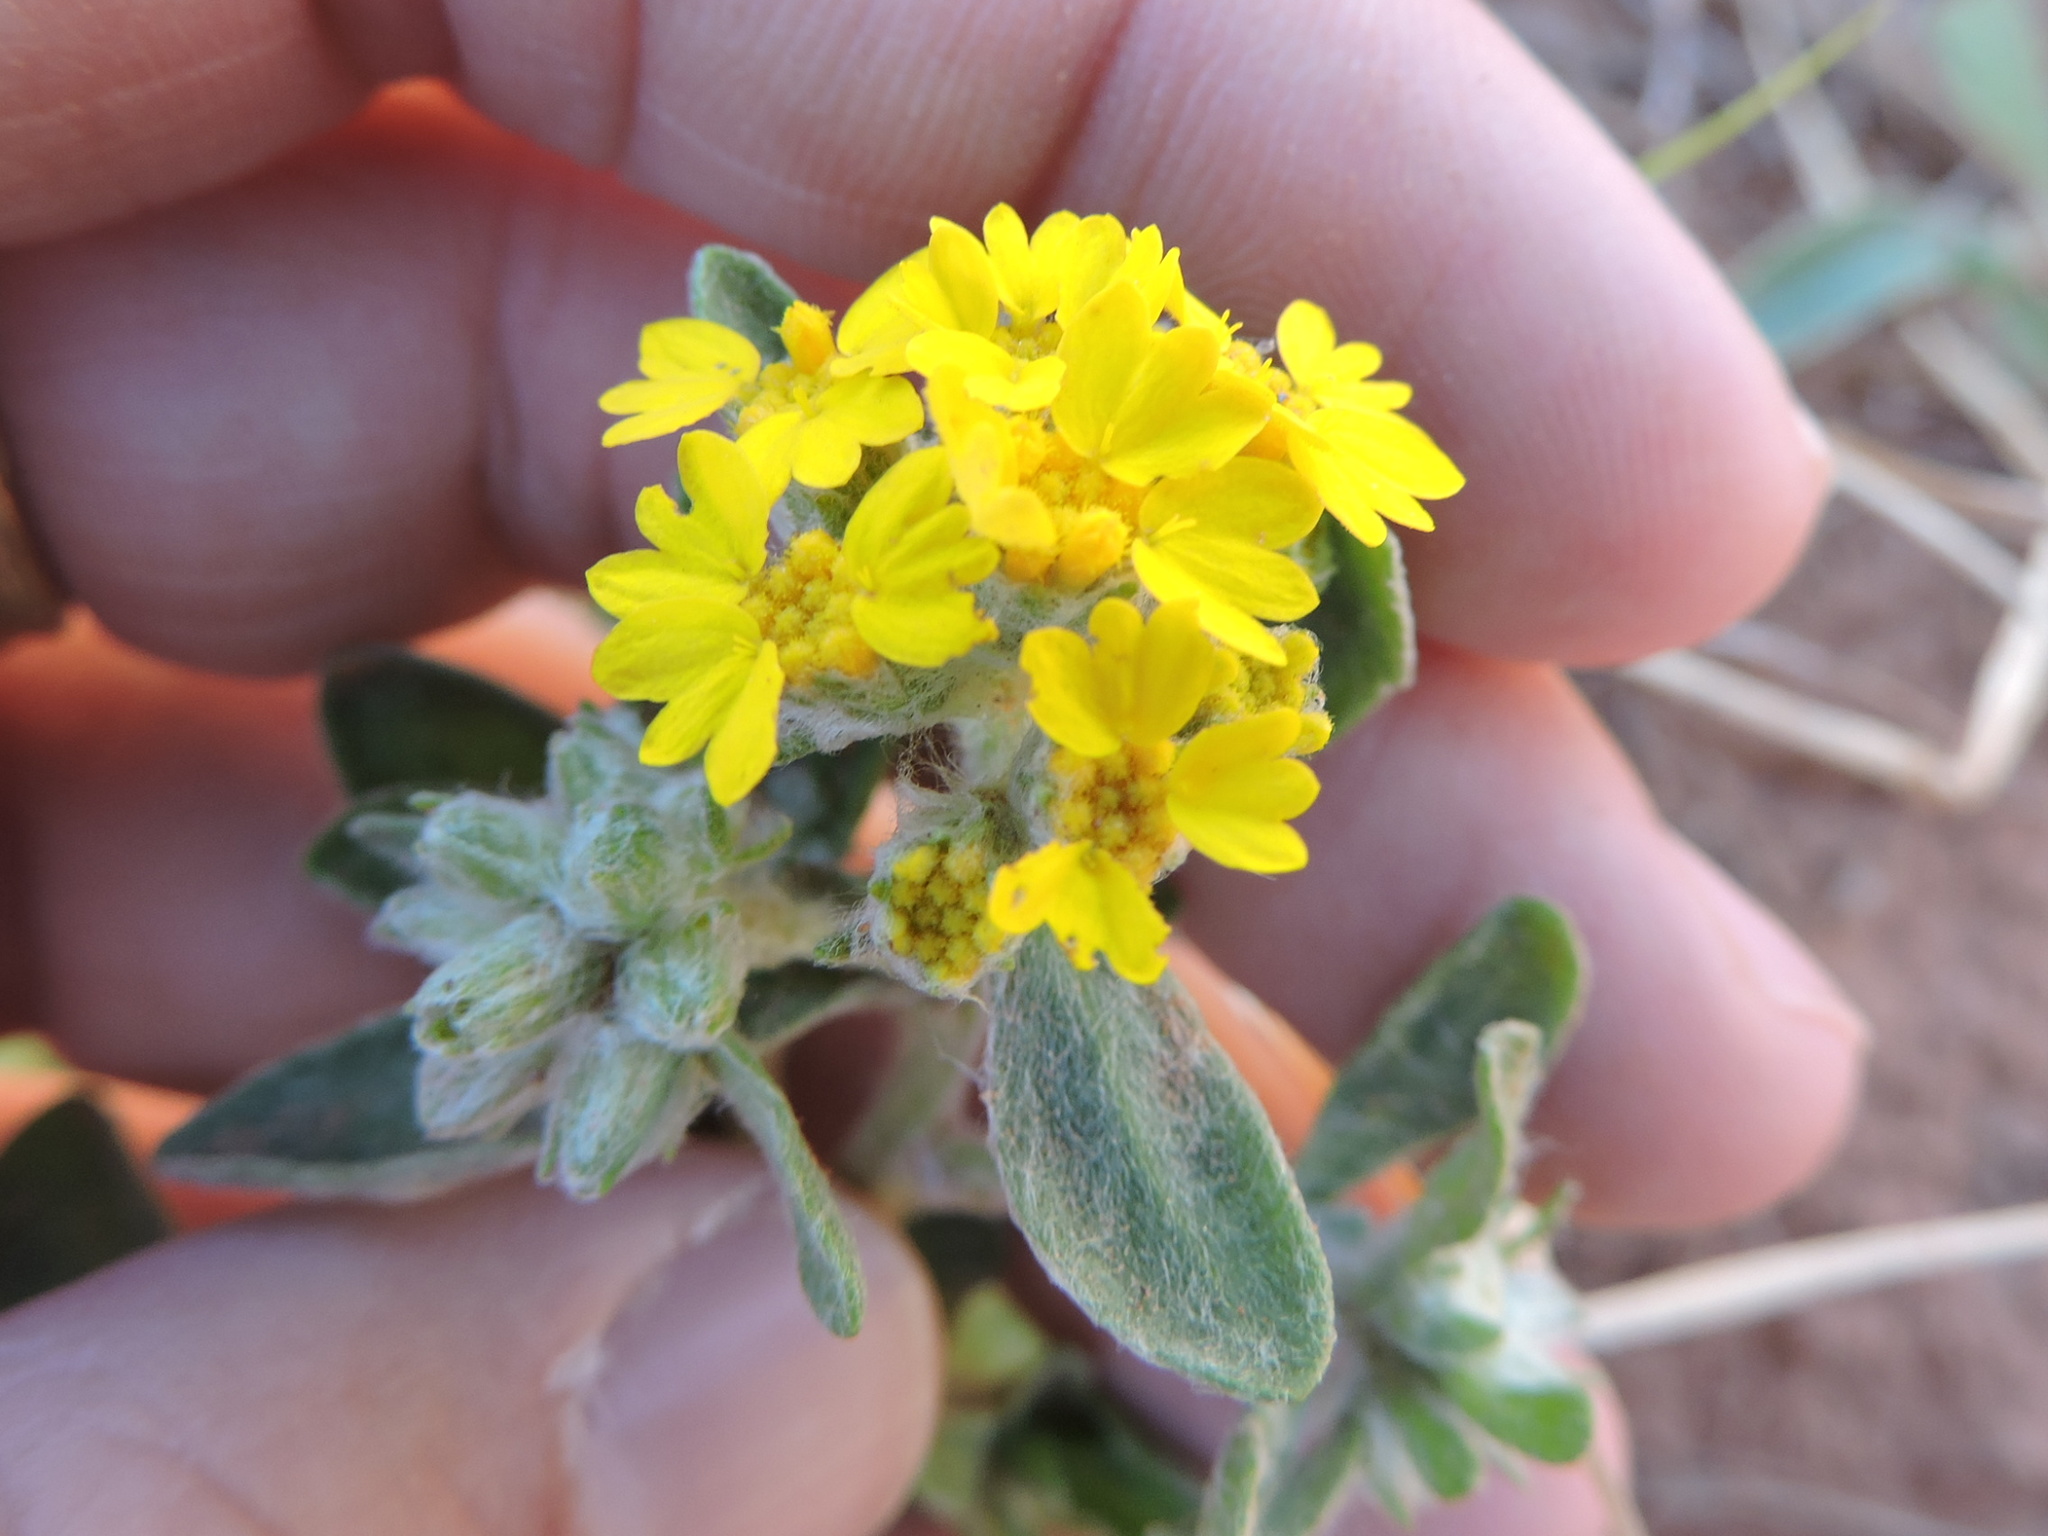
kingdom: Plantae
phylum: Tracheophyta
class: Magnoliopsida
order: Asterales
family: Asteraceae
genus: Psilostrophe
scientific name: Psilostrophe villosa
